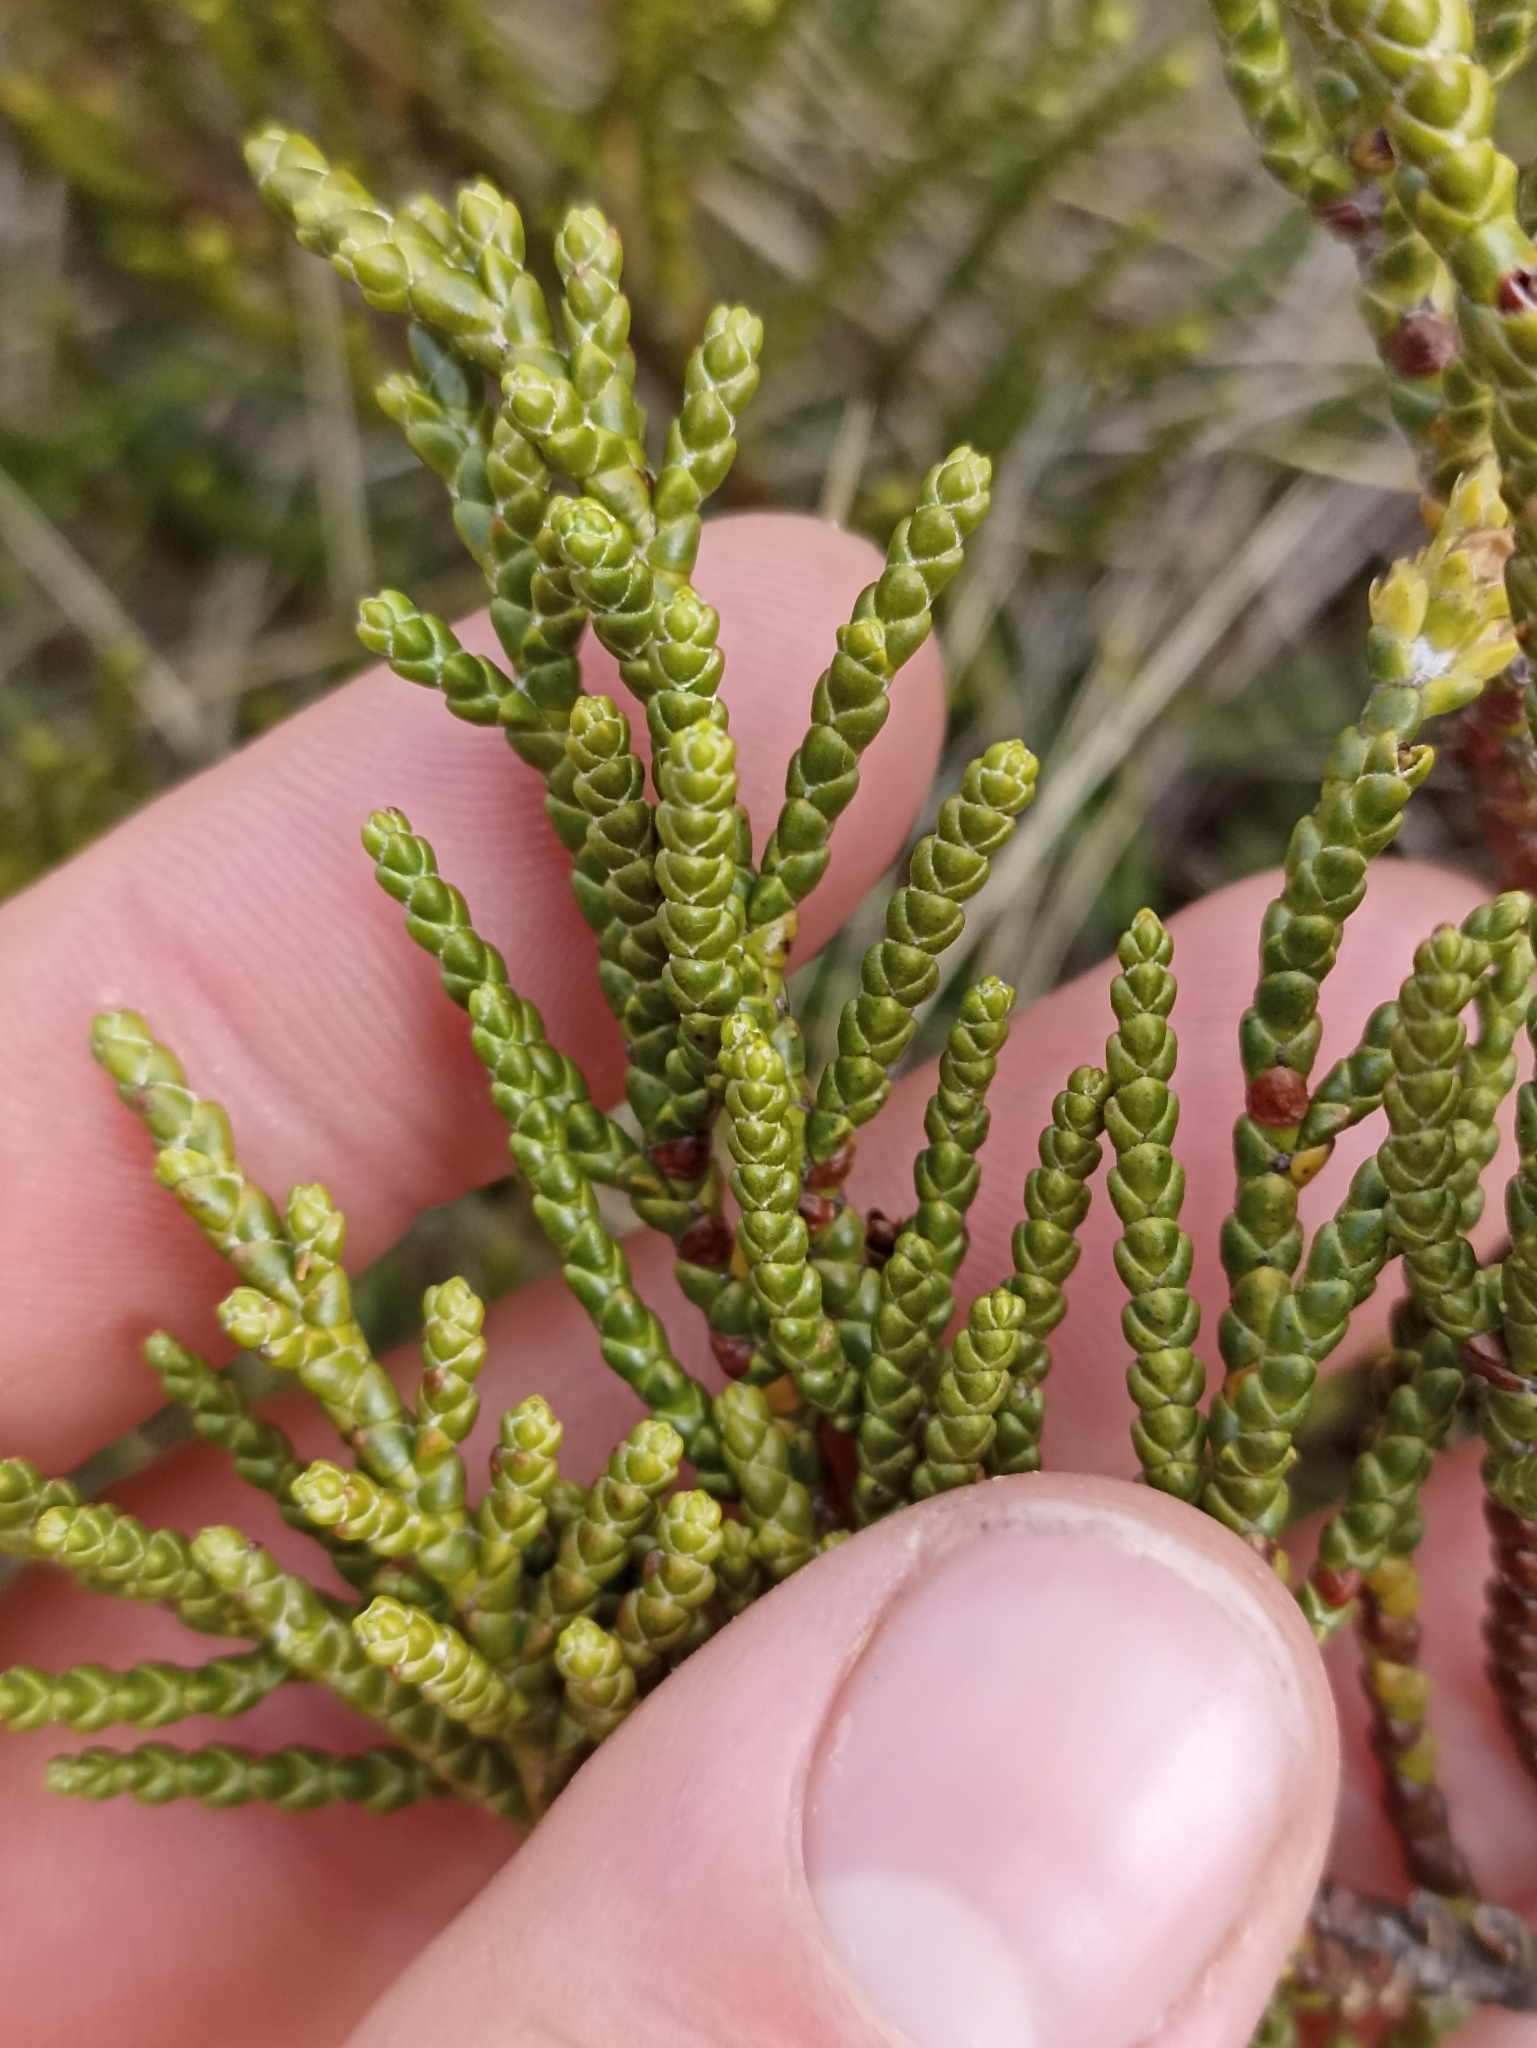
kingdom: Plantae
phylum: Tracheophyta
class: Pinopsida
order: Pinales
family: Podocarpaceae
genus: Halocarpus
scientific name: Halocarpus biformis
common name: Alpine tarwood
